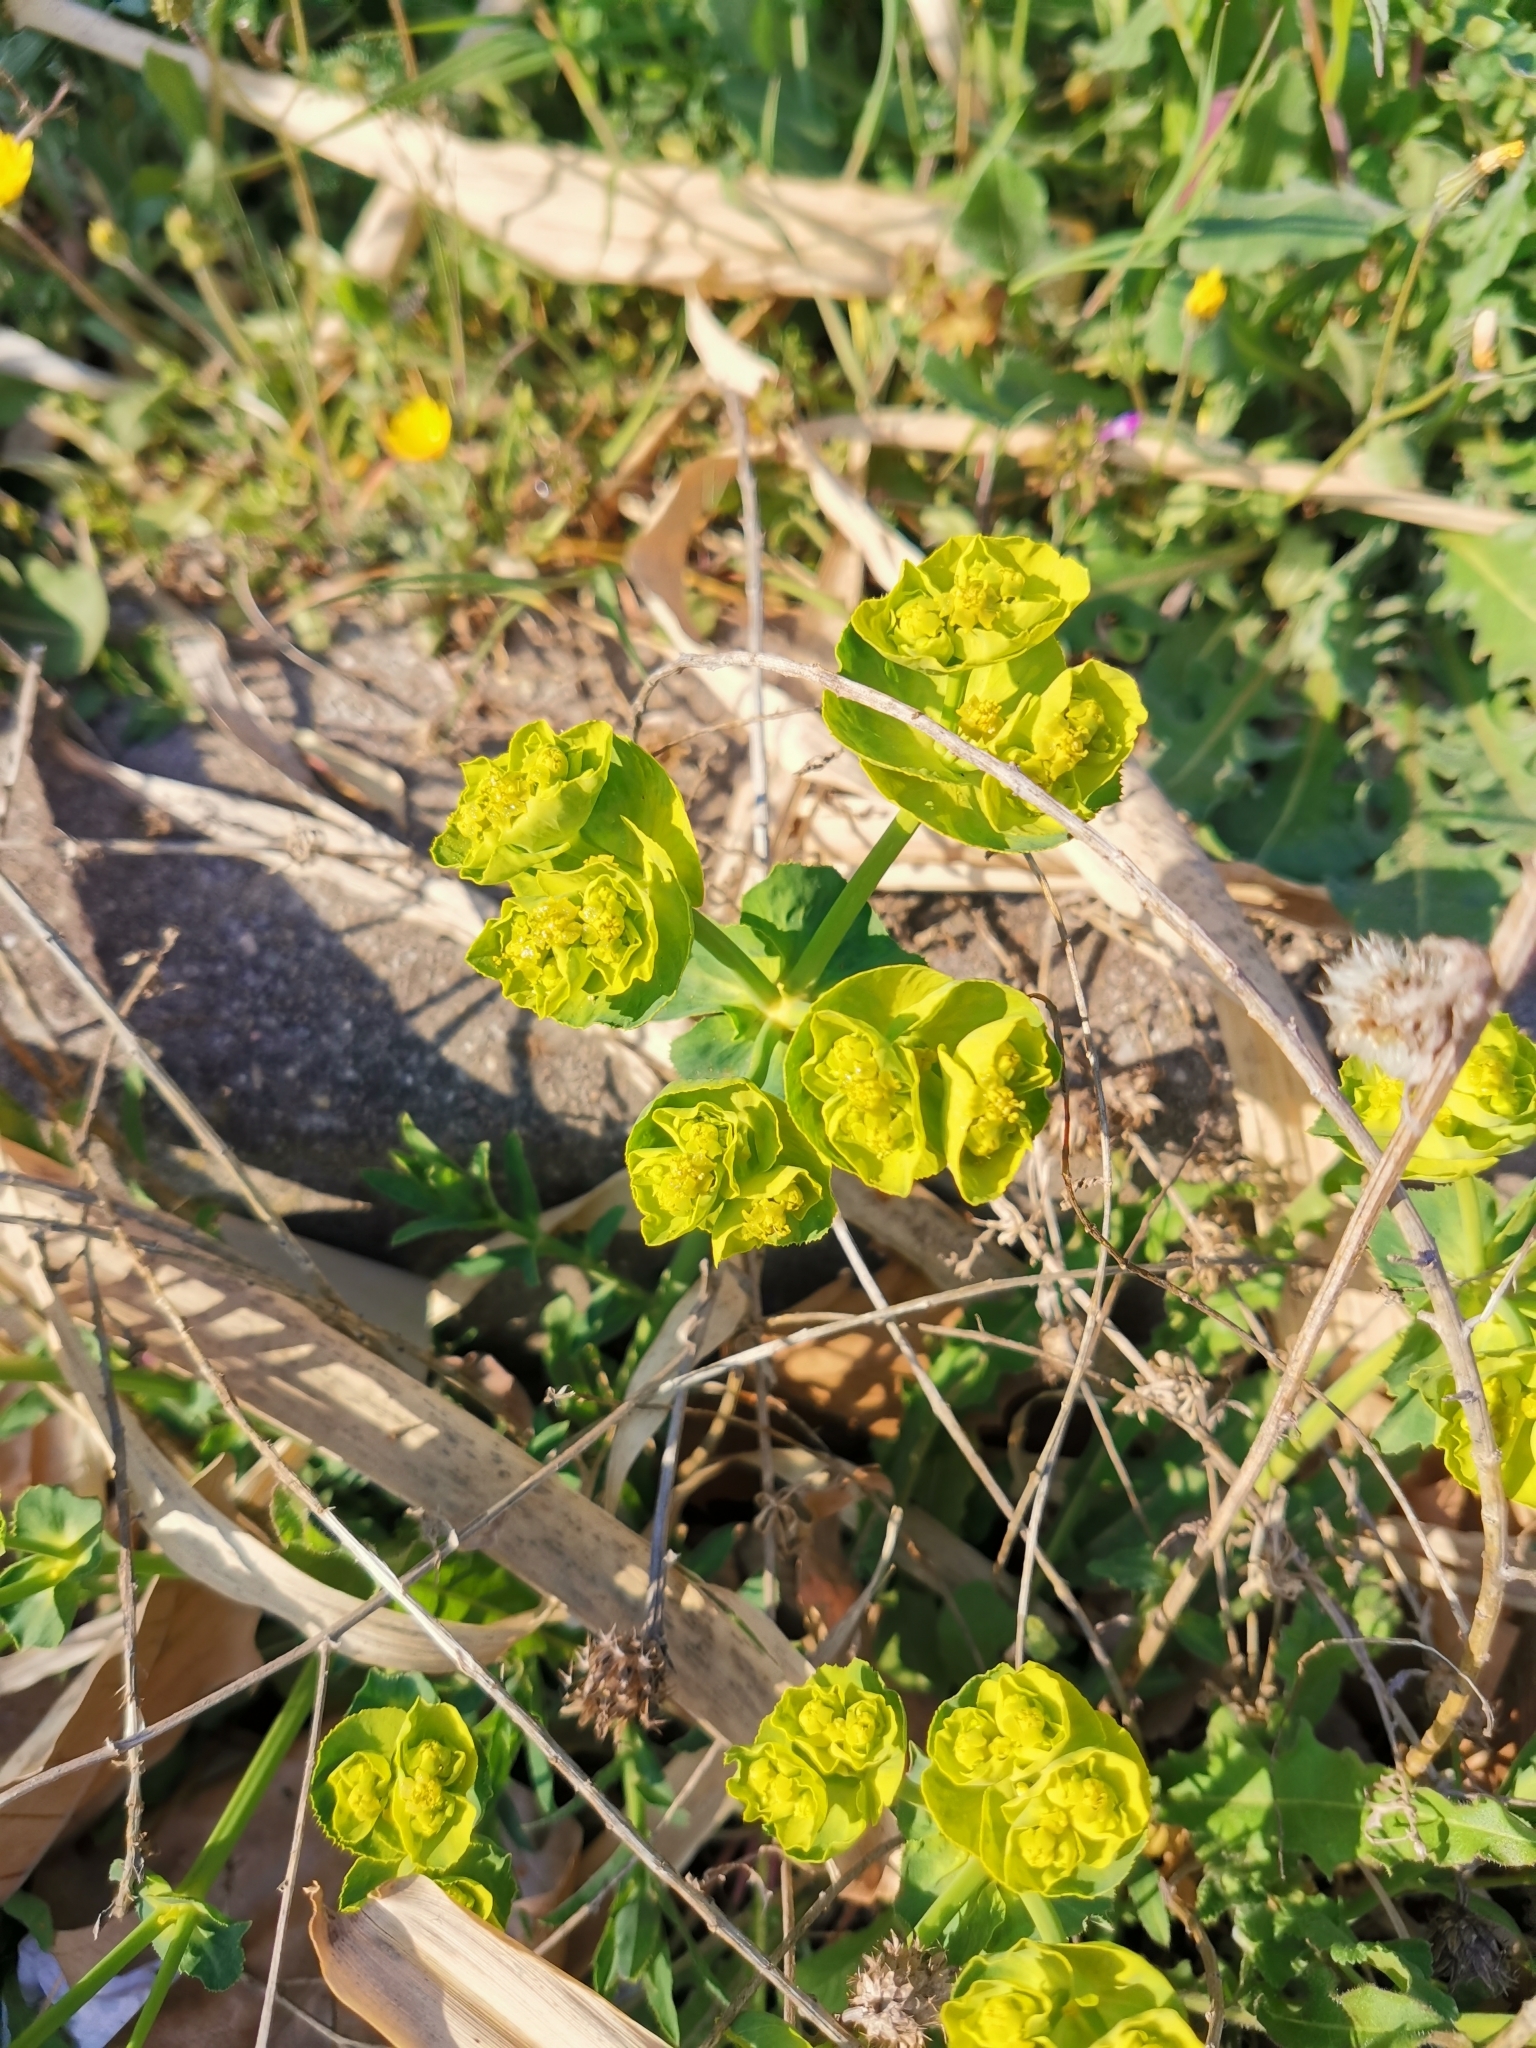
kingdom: Plantae
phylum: Tracheophyta
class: Magnoliopsida
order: Malpighiales
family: Euphorbiaceae
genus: Euphorbia
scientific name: Euphorbia serrata
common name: Serrate spurge
